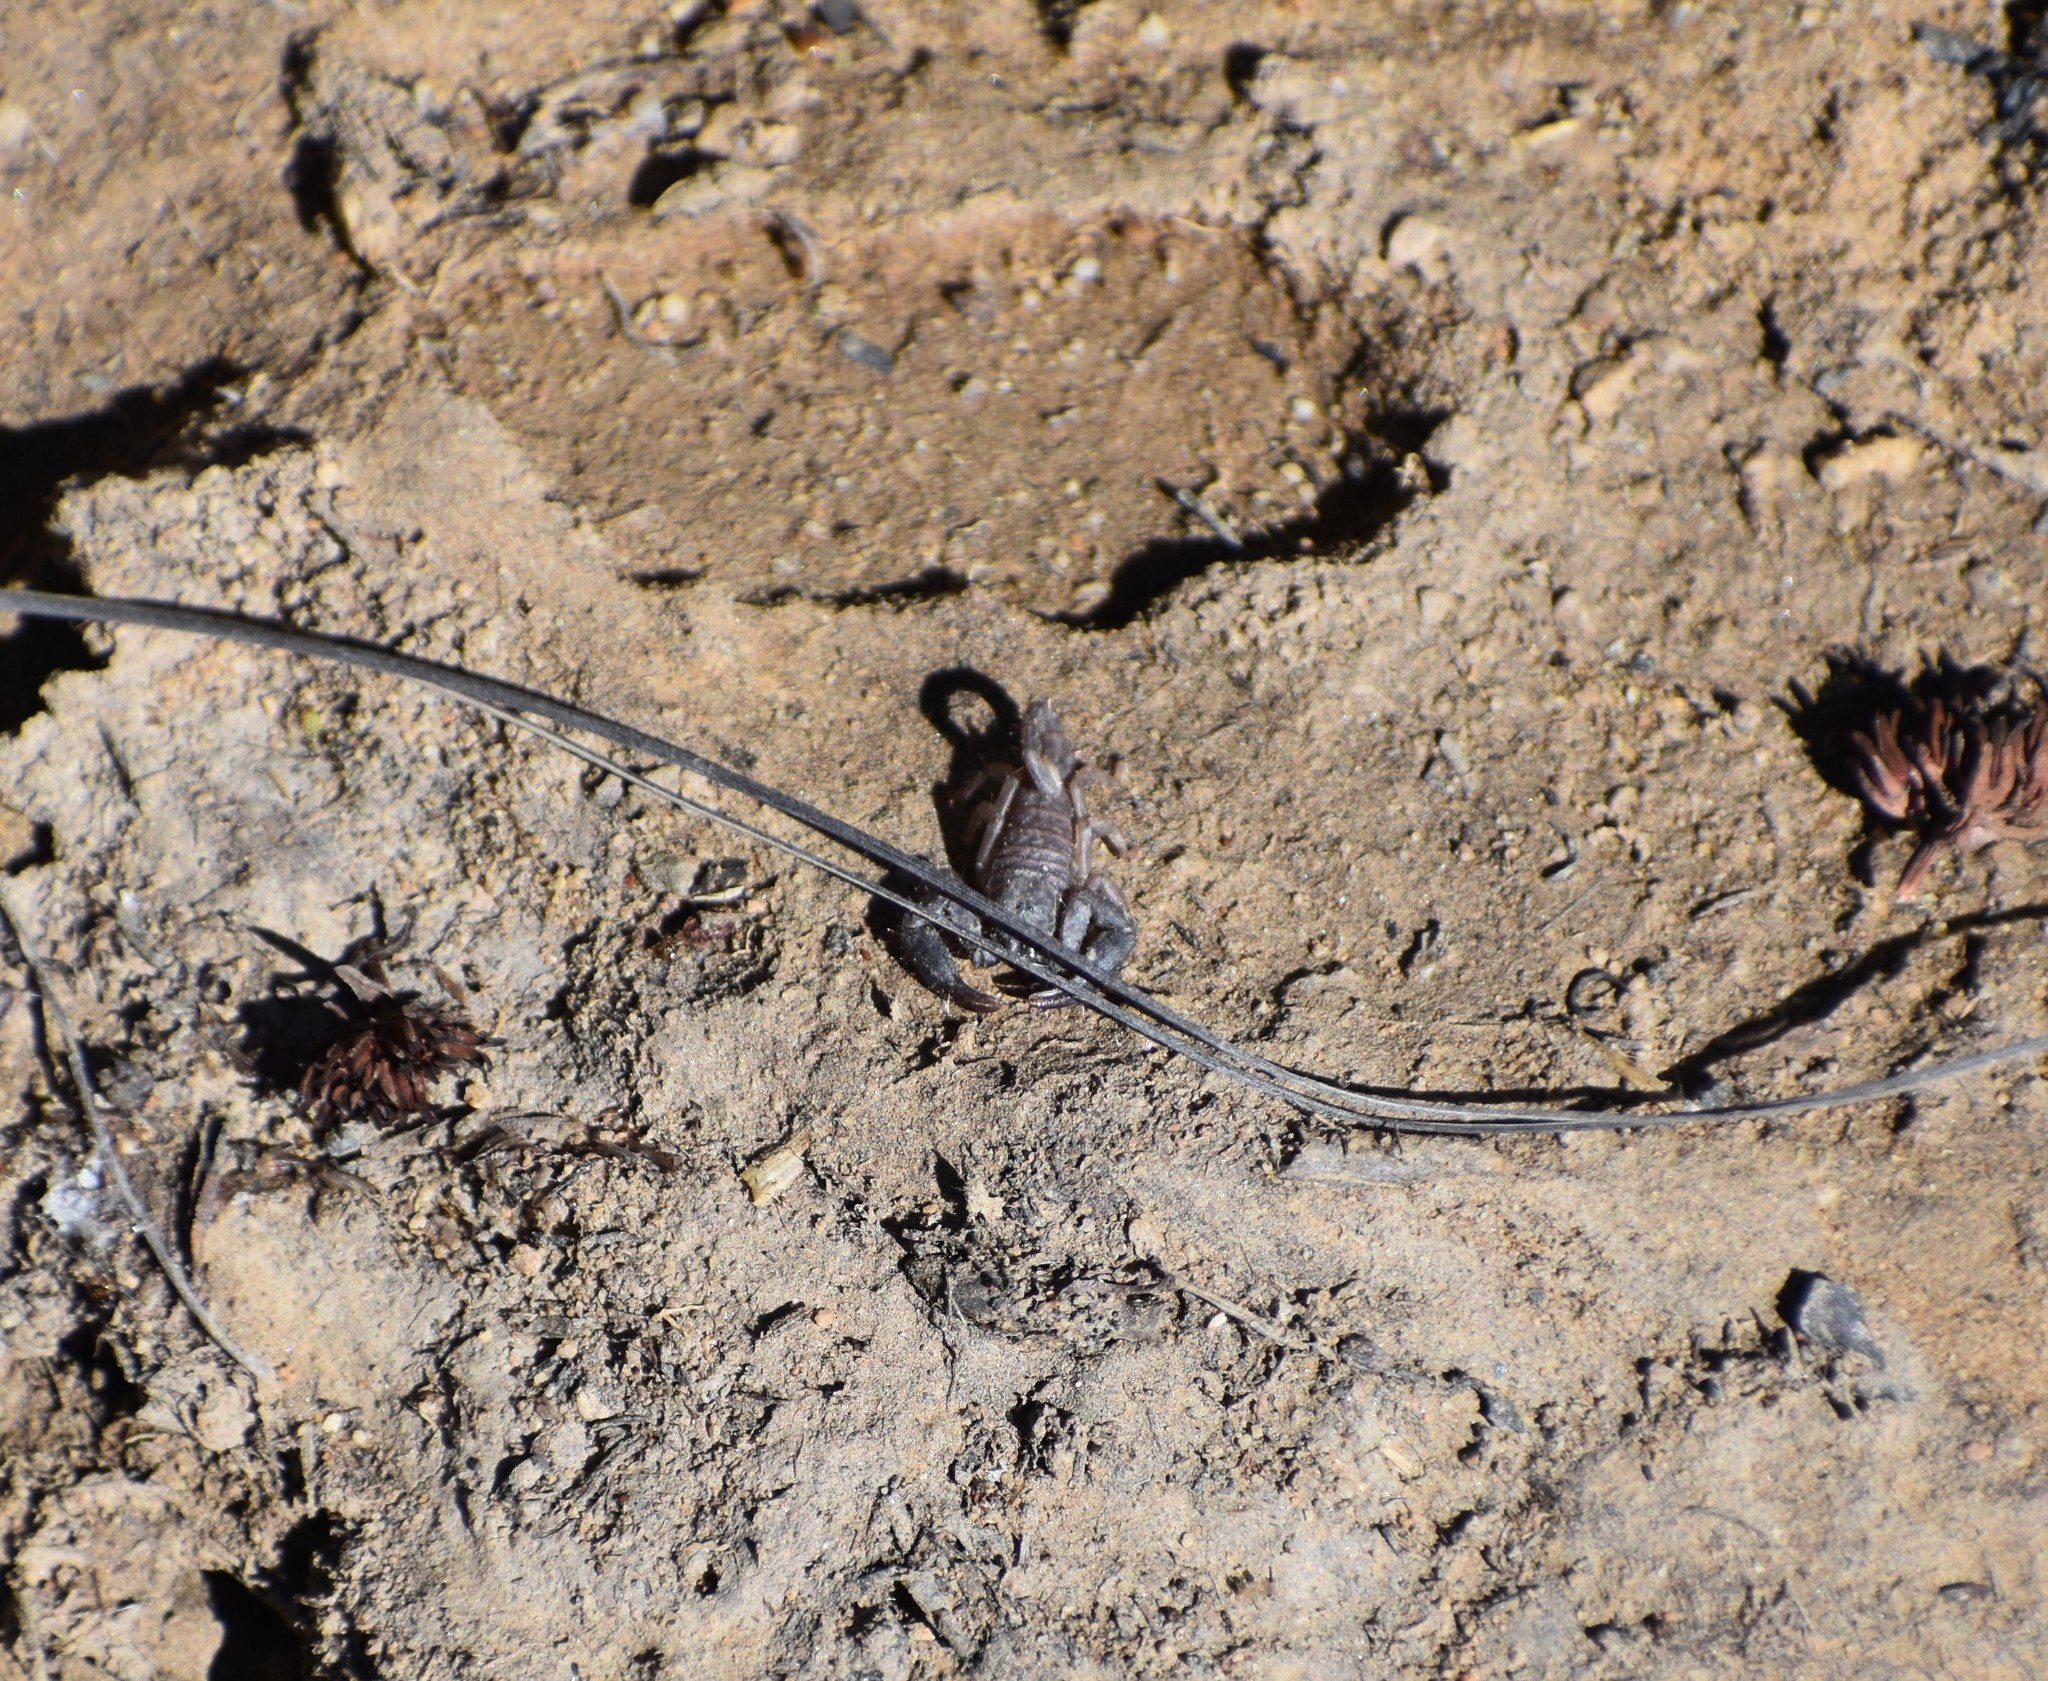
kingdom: Animalia
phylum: Arthropoda
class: Arachnida
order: Scorpiones
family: Hormuridae
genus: Opisthacanthus
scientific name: Opisthacanthus diremptus
